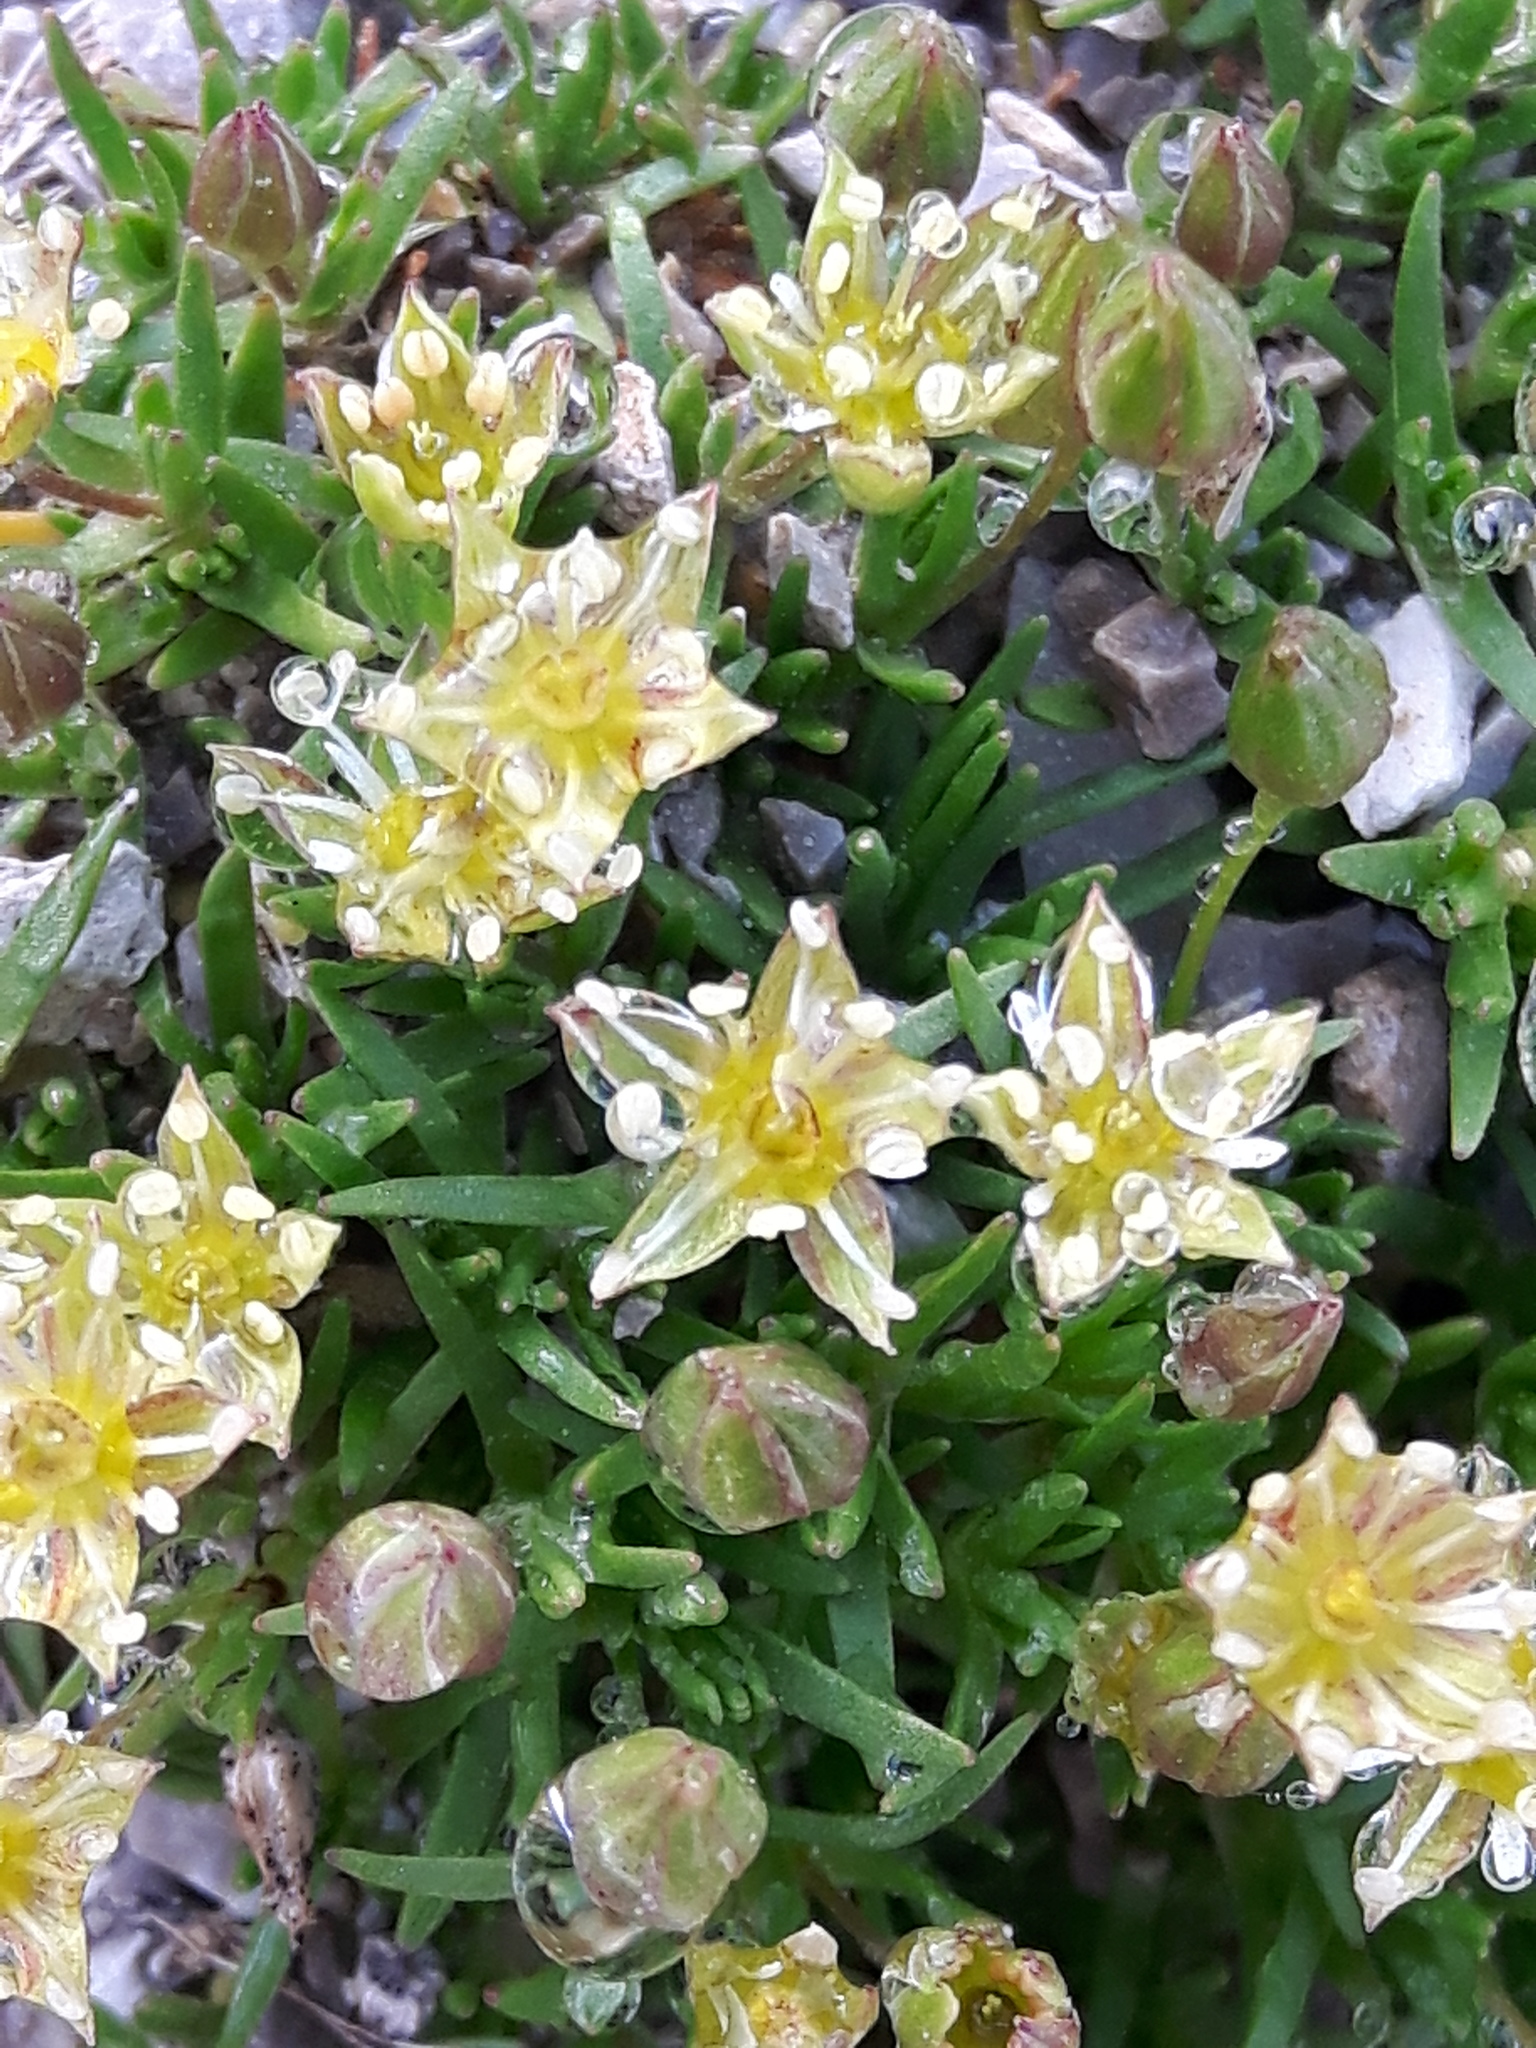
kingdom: Plantae
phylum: Tracheophyta
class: Magnoliopsida
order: Caryophyllales
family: Caryophyllaceae
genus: Sabulina
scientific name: Sabulina austromontana
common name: Columbia stitchwort
